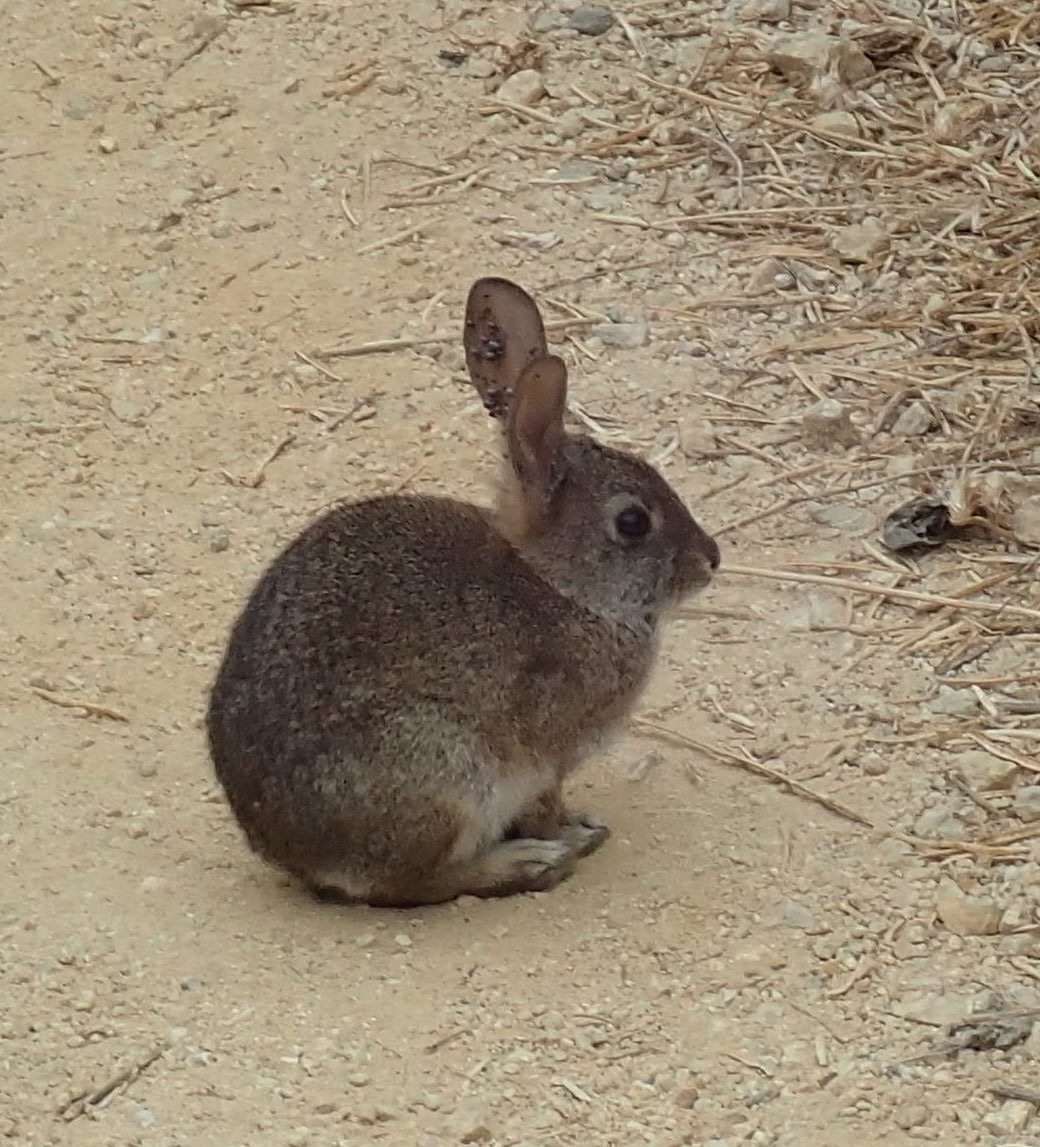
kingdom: Animalia
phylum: Chordata
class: Mammalia
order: Lagomorpha
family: Leporidae
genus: Sylvilagus
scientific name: Sylvilagus bachmani
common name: Brush rabbit
